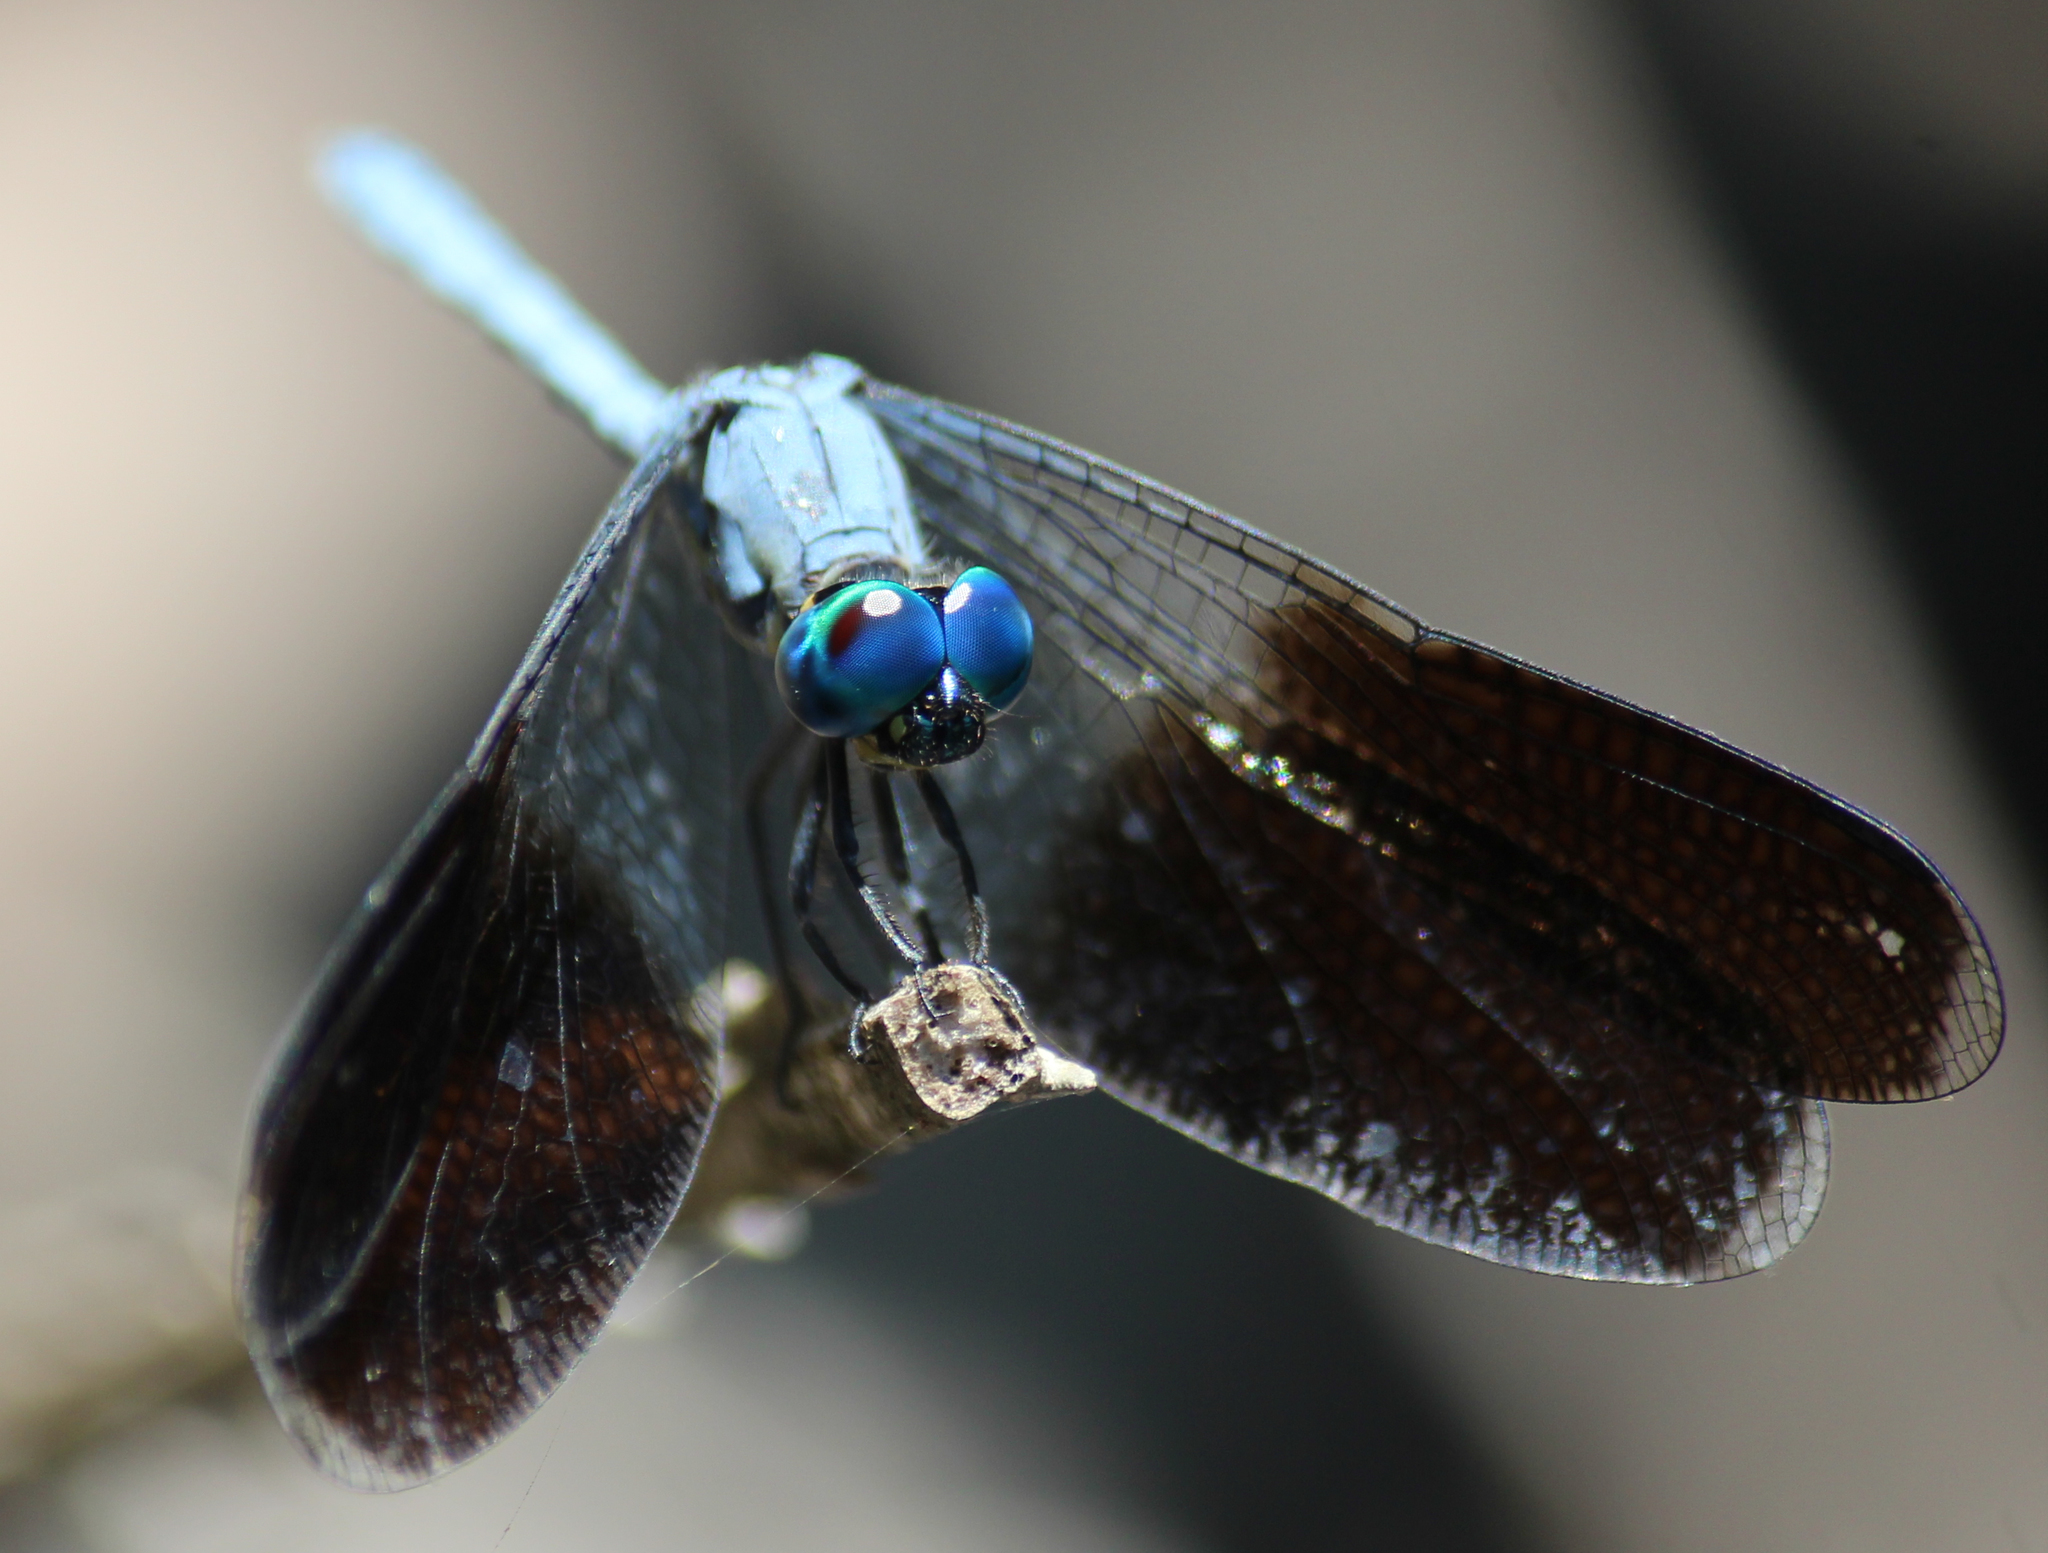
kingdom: Animalia
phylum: Arthropoda
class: Insecta
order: Odonata
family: Libellulidae
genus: Tetrathemis
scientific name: Tetrathemis polleni
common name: Black-splashed elf
